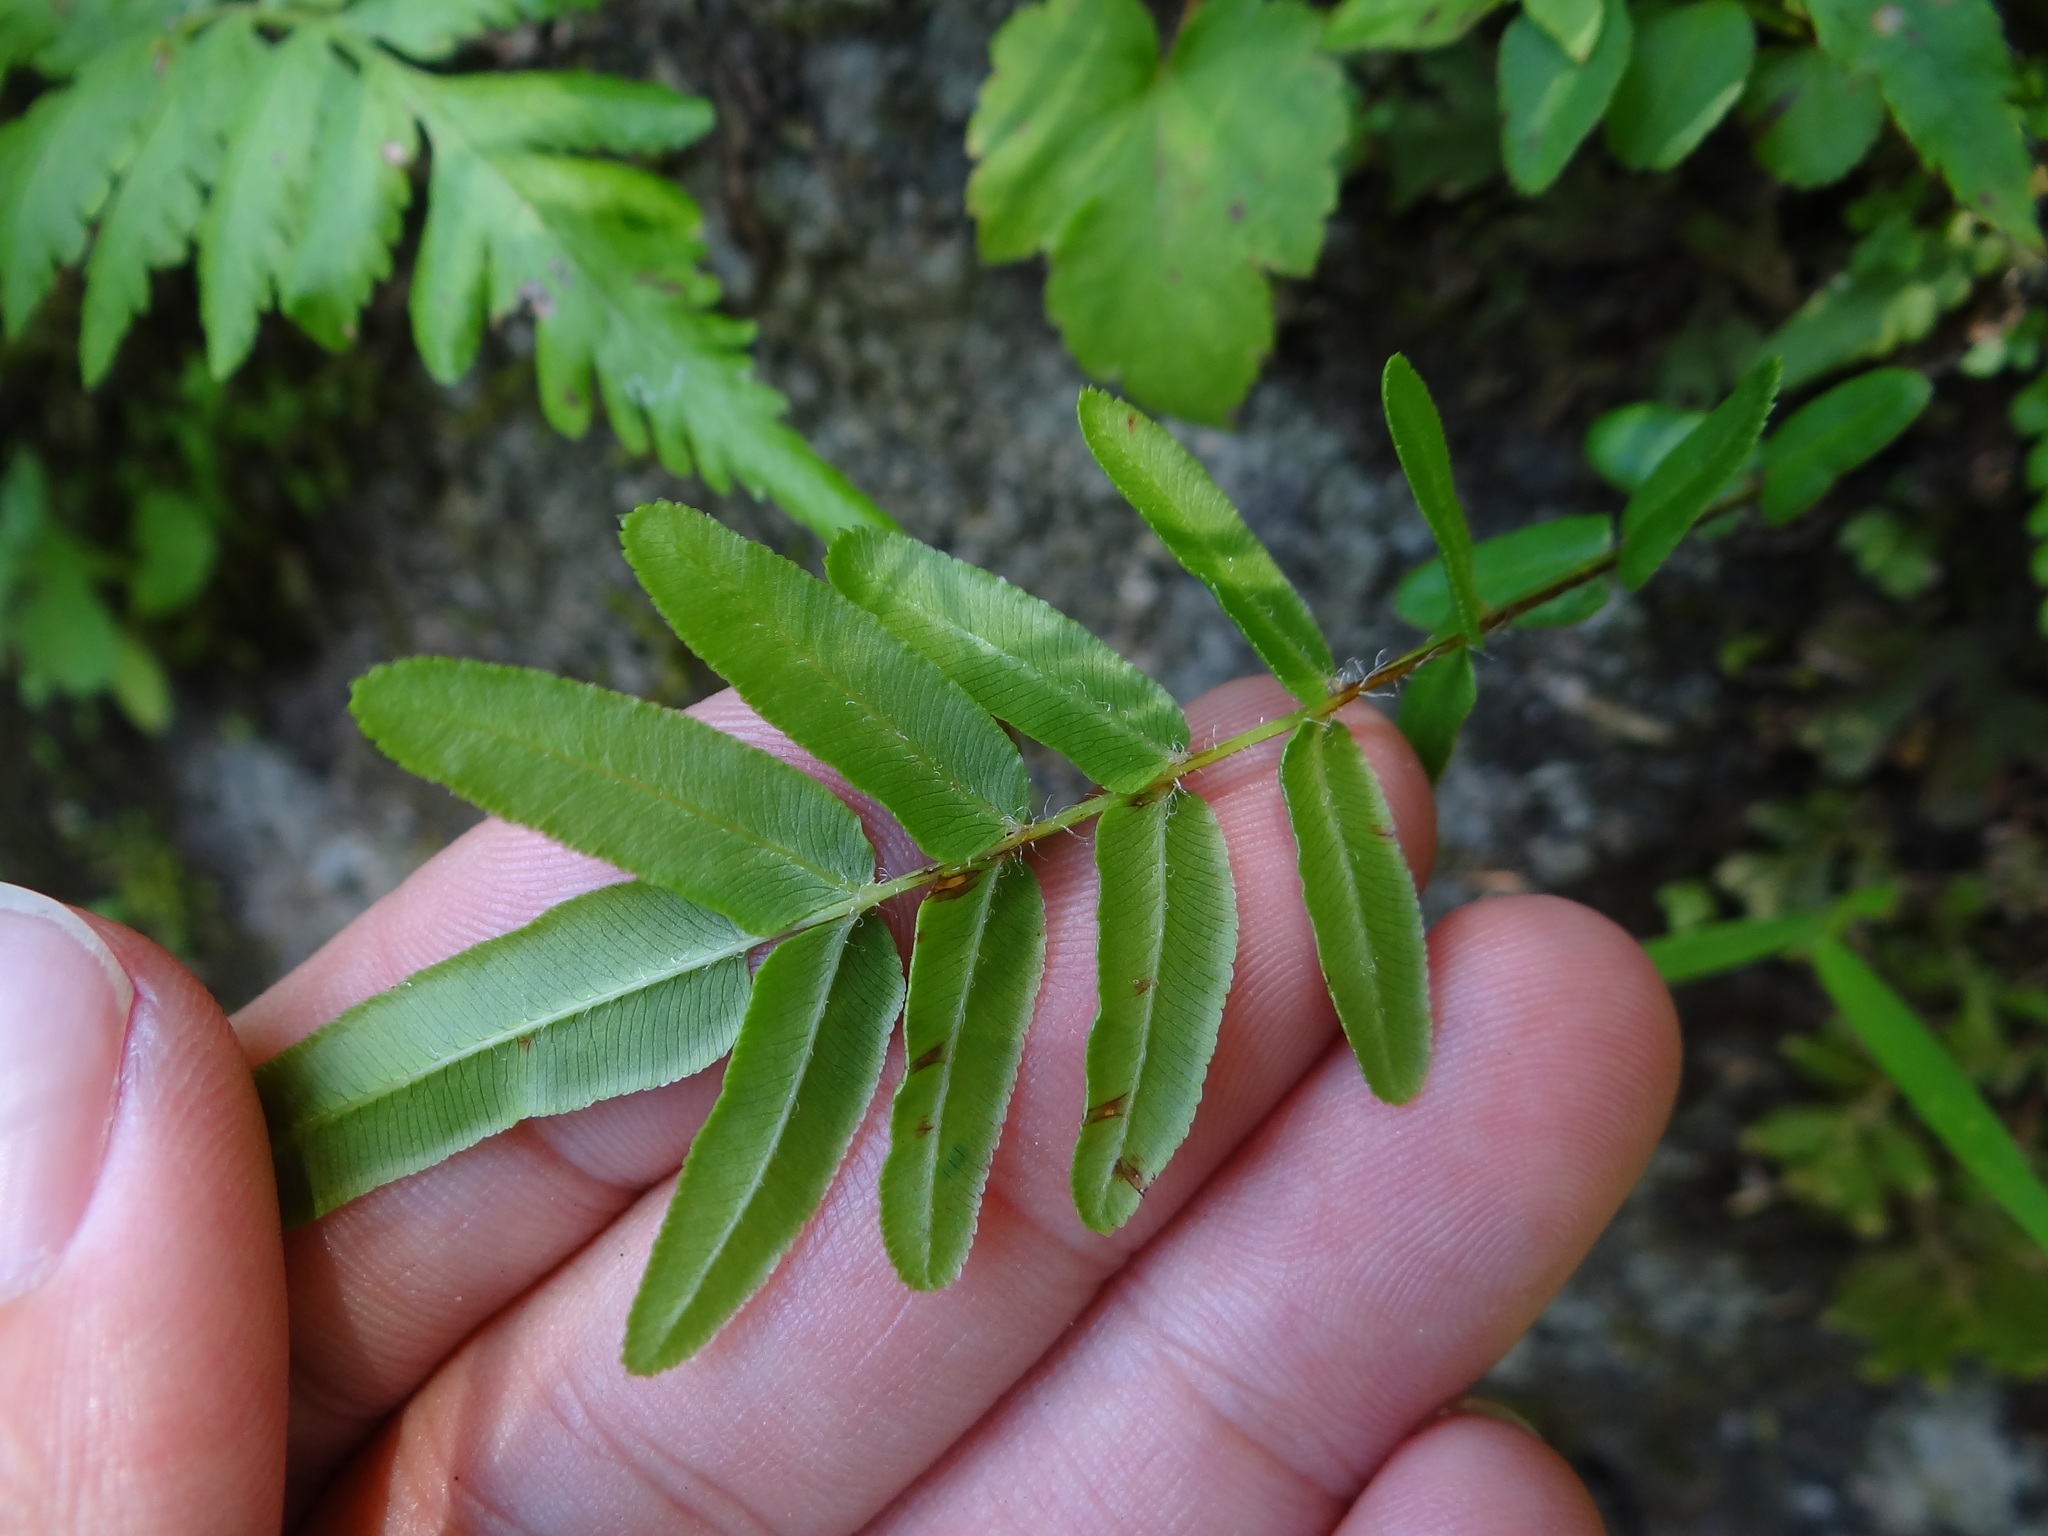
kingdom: Plantae
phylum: Tracheophyta
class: Polypodiopsida
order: Polypodiales
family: Pteridaceae
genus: Pteris
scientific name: Pteris vittata
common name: Ladder brake
